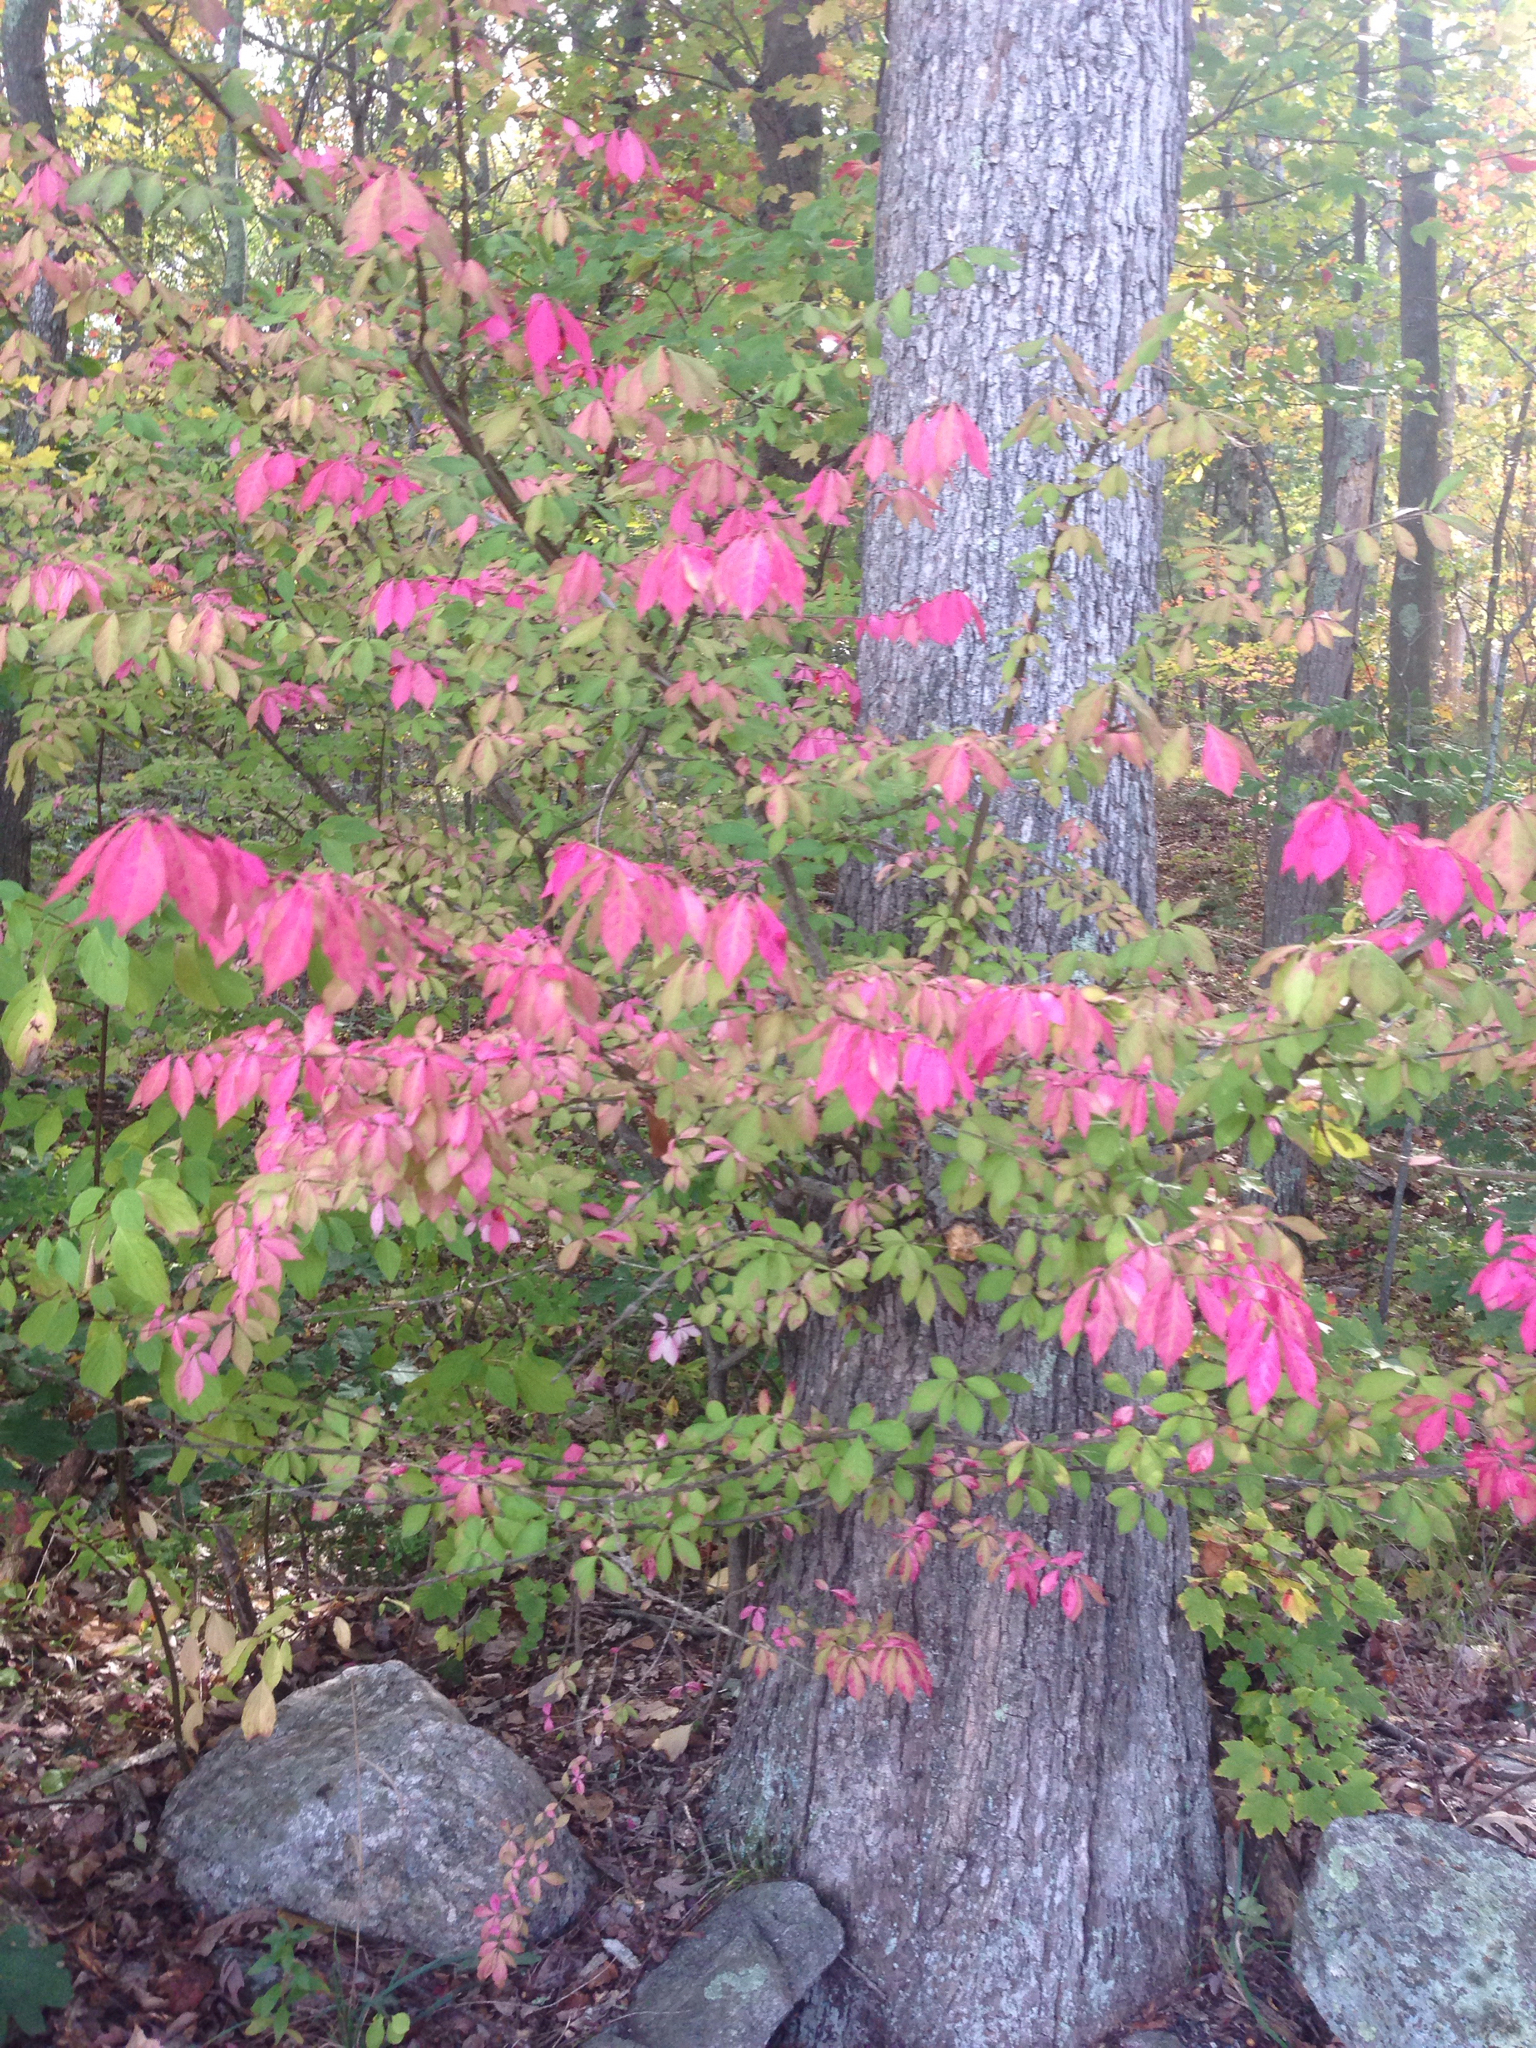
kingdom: Plantae
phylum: Tracheophyta
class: Magnoliopsida
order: Celastrales
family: Celastraceae
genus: Euonymus
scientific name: Euonymus alatus
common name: Winged euonymus
